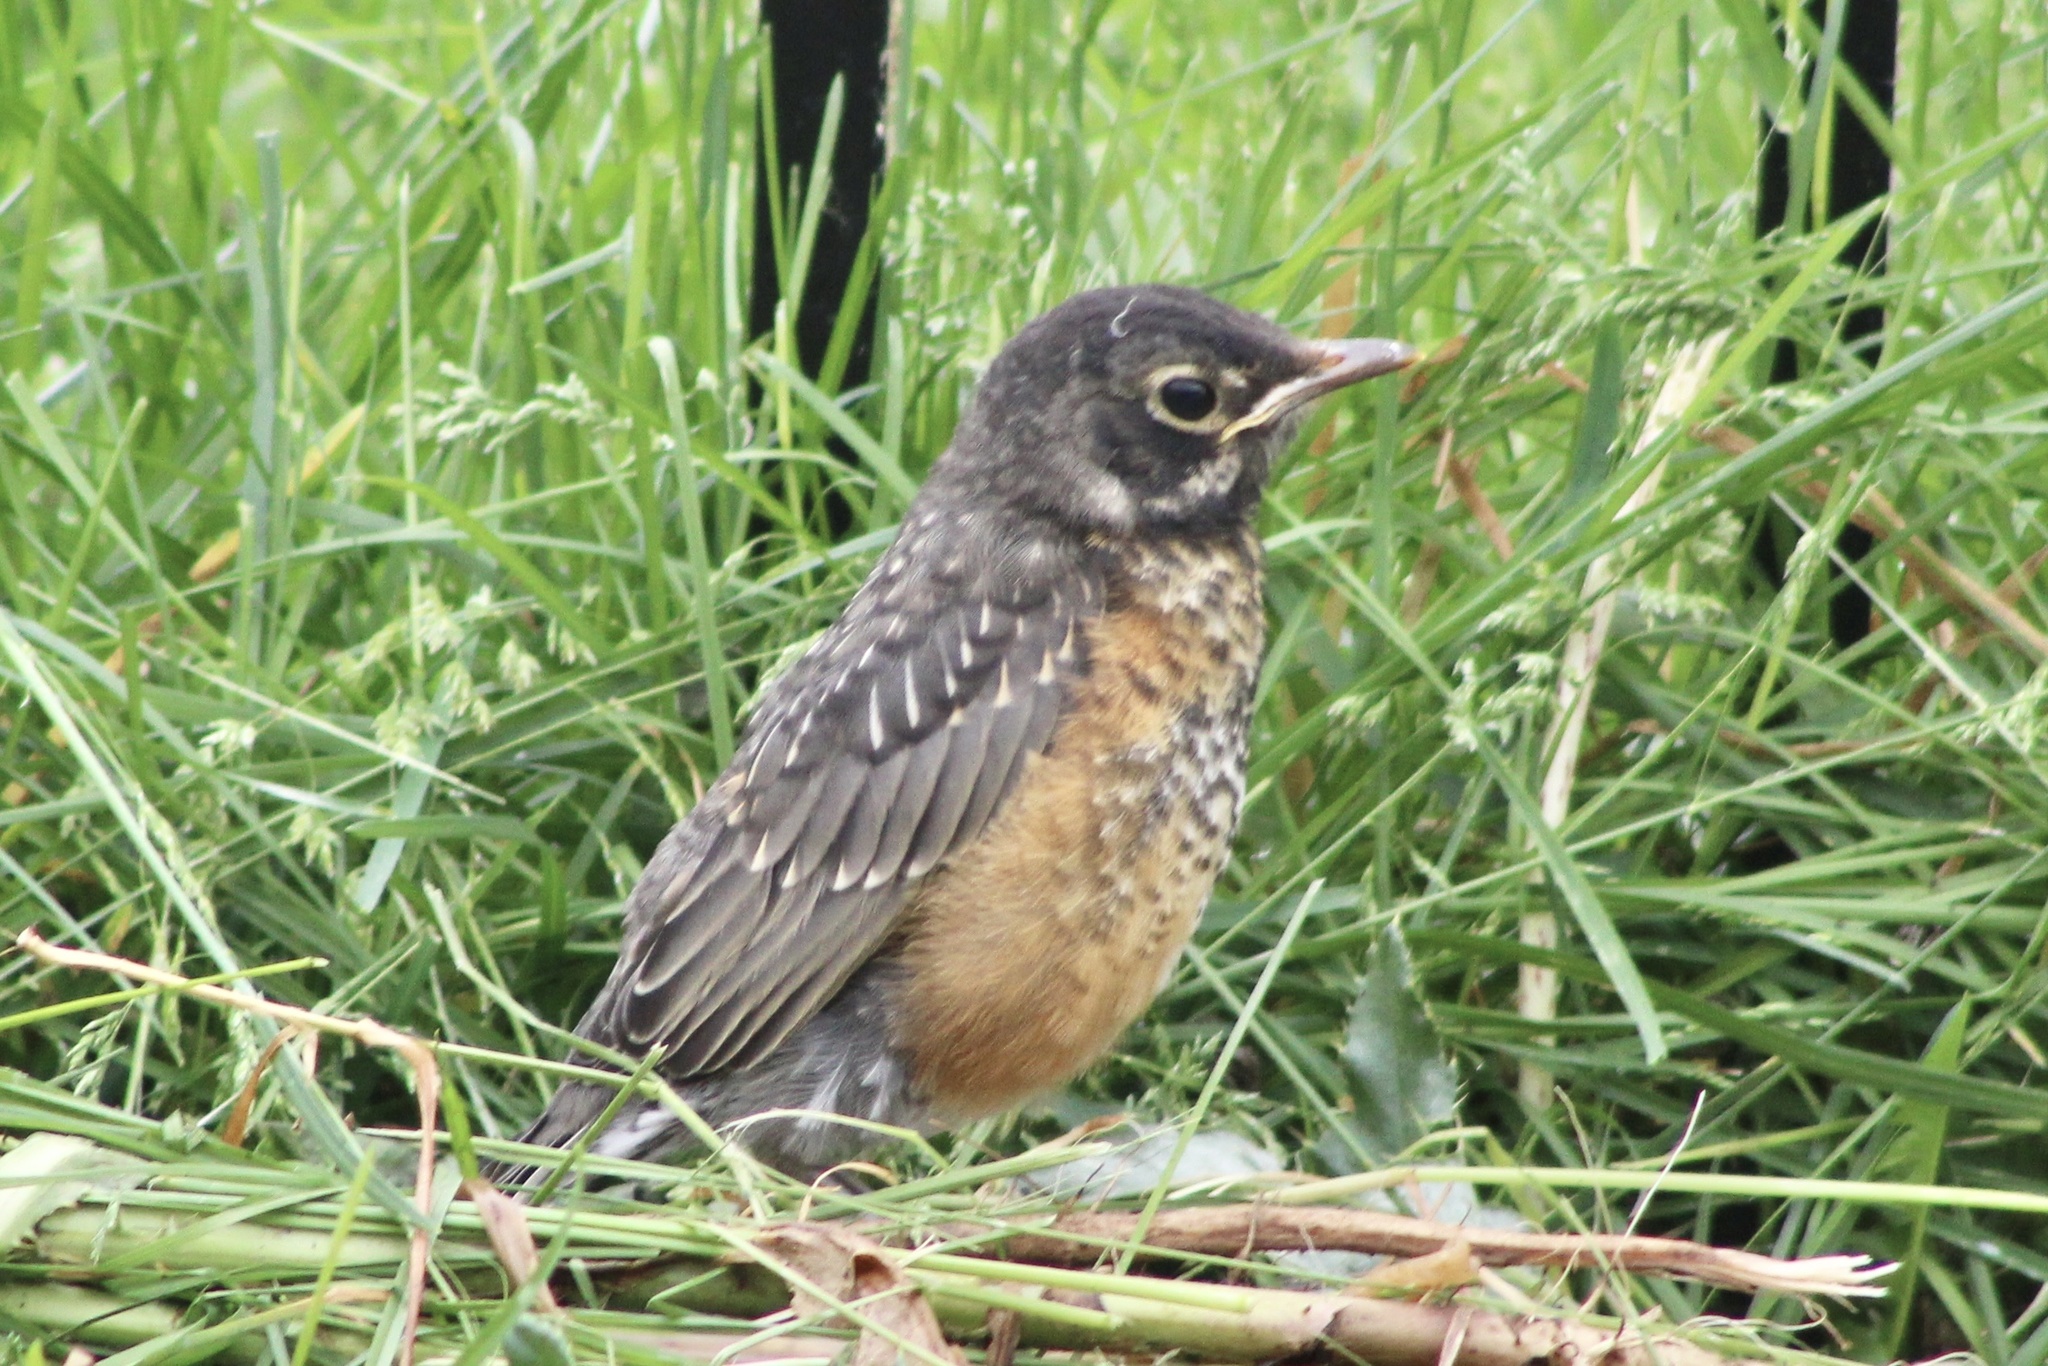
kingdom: Animalia
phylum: Chordata
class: Aves
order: Passeriformes
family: Turdidae
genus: Turdus
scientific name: Turdus migratorius
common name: American robin
